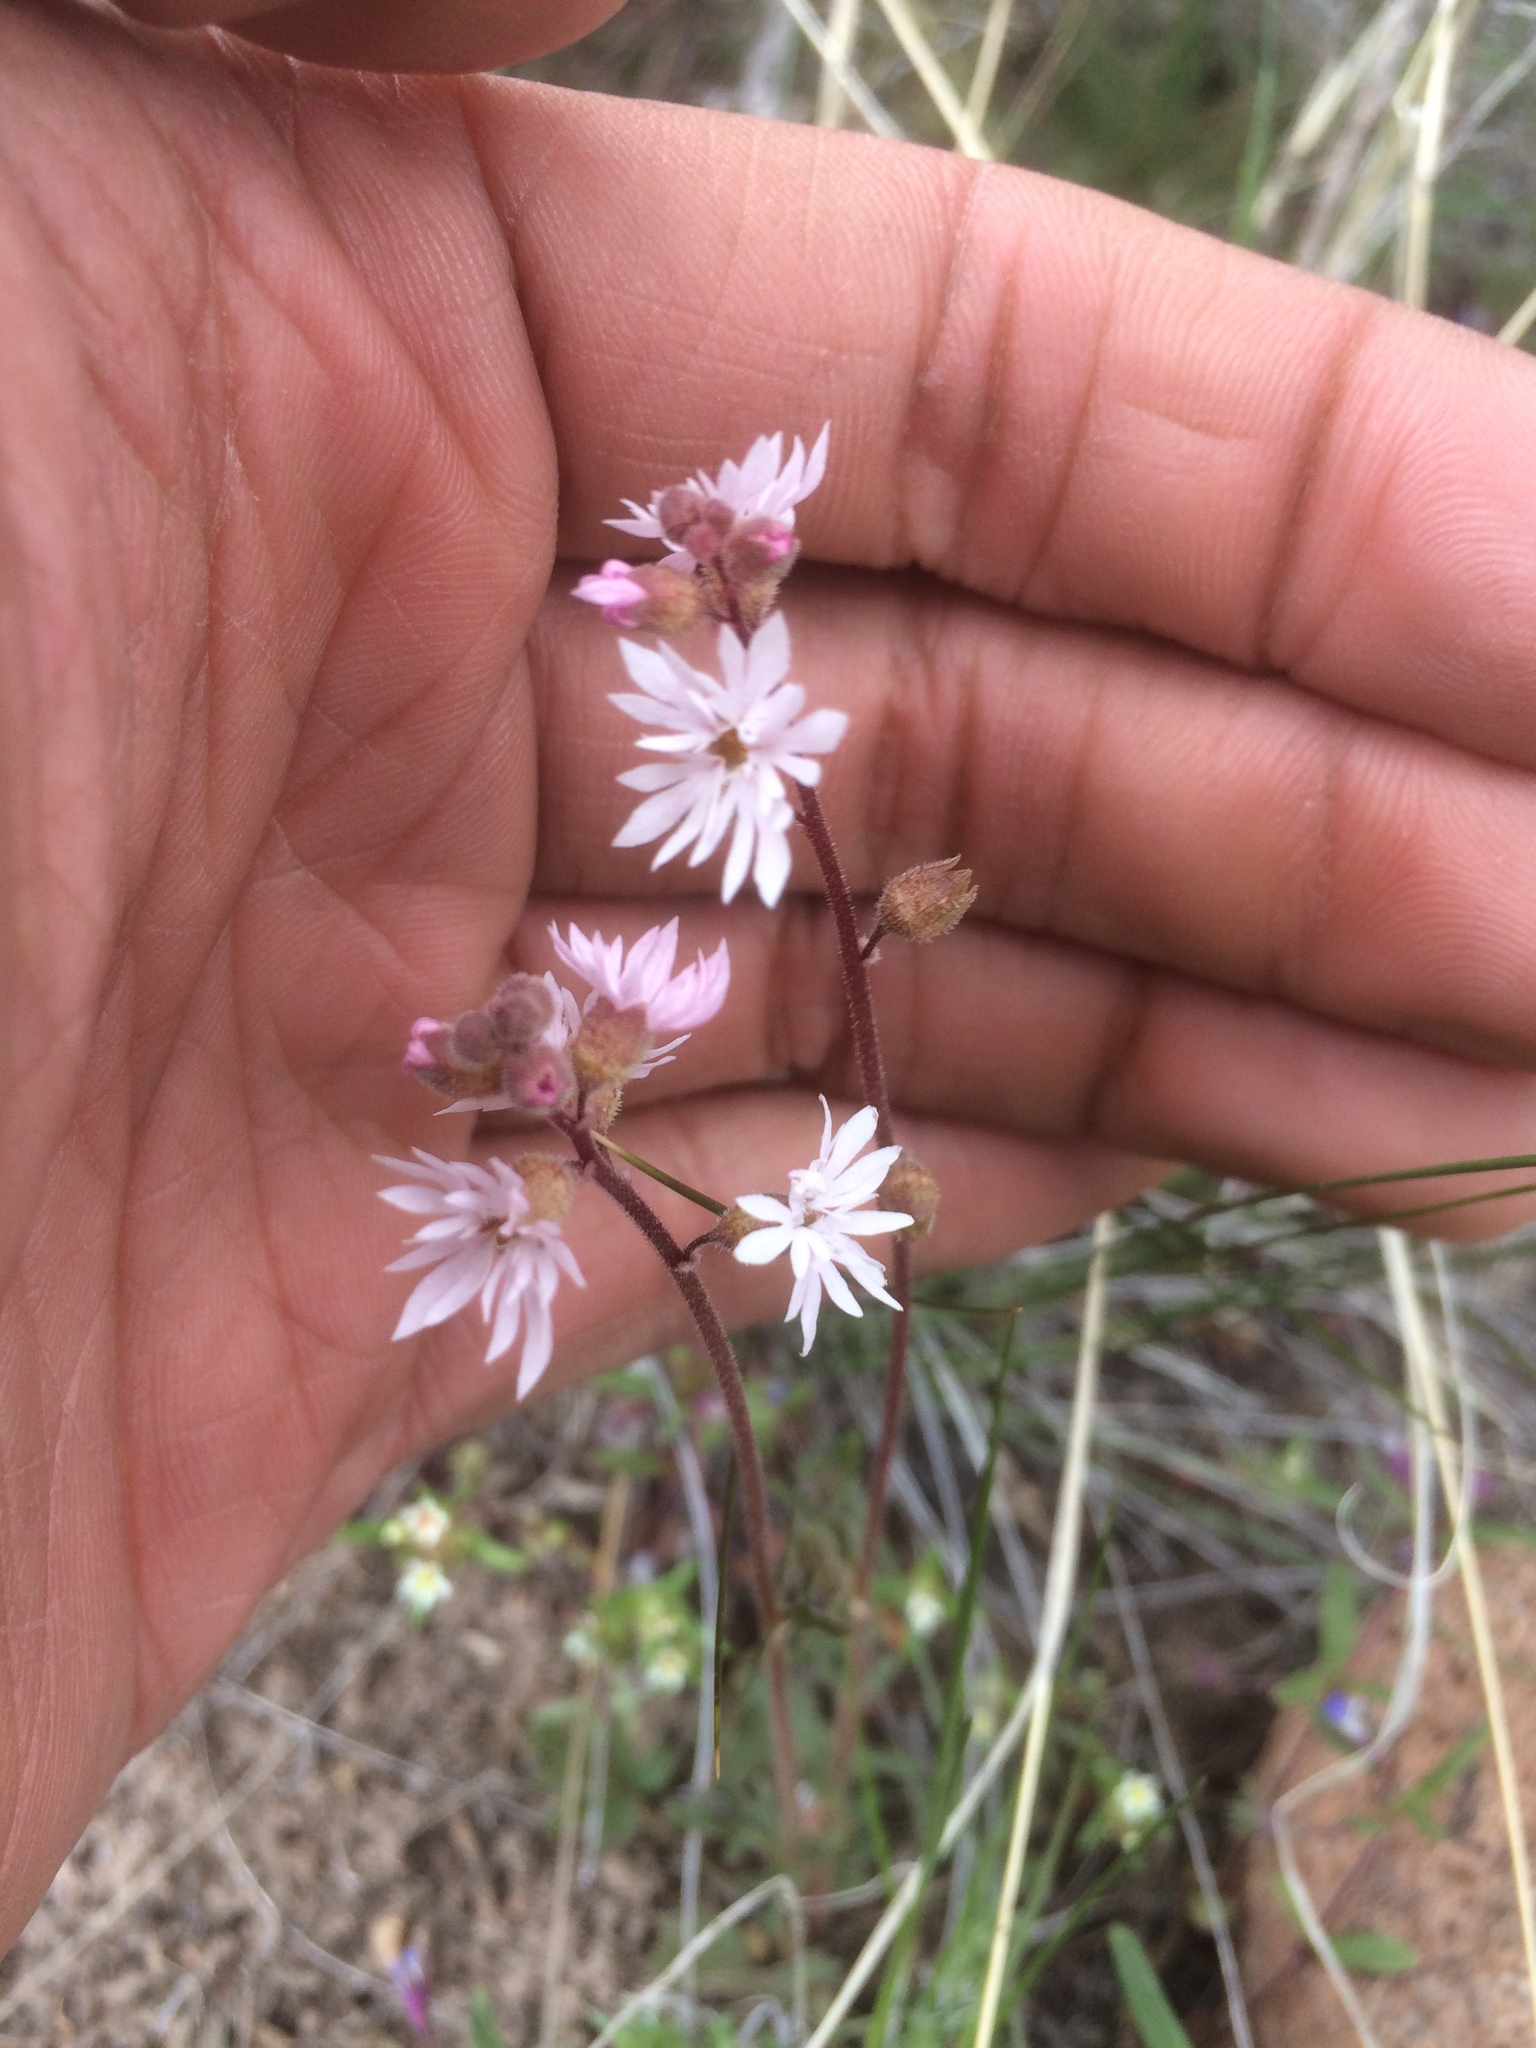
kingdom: Plantae
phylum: Tracheophyta
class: Magnoliopsida
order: Saxifragales
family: Saxifragaceae
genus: Lithophragma
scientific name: Lithophragma tenella
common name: Slender fringe-cup
